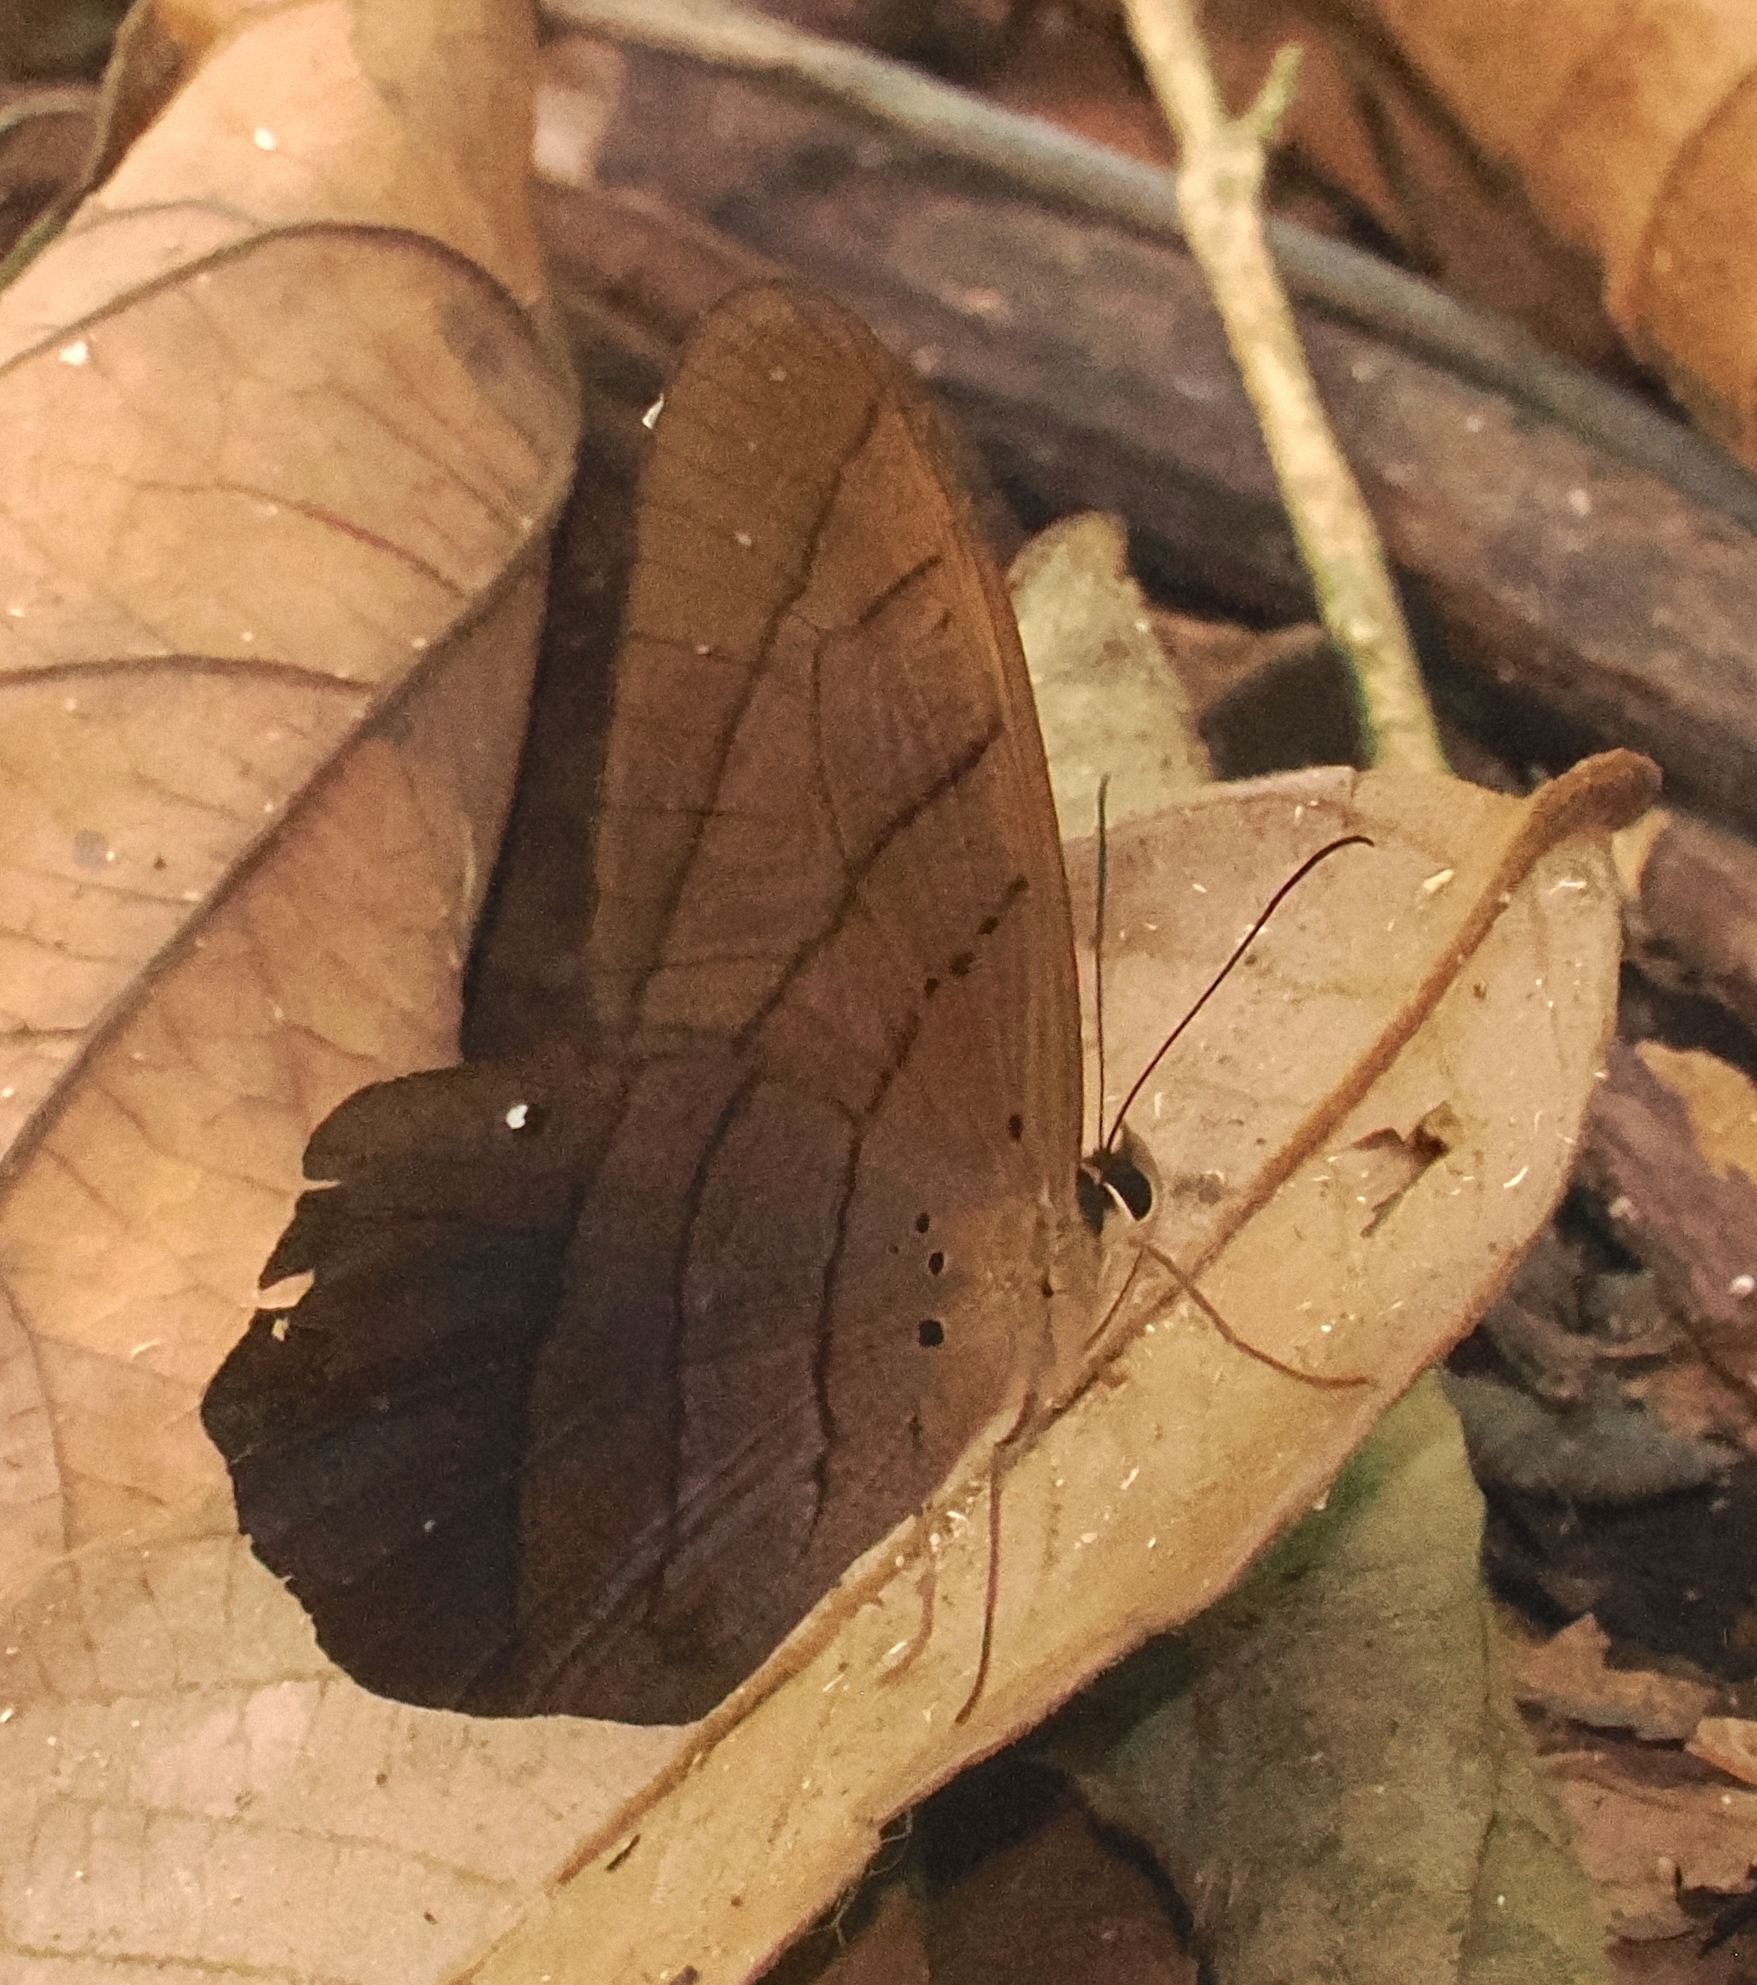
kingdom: Animalia
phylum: Arthropoda
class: Insecta
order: Lepidoptera
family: Nymphalidae
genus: Pierella
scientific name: Pierella luna
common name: Moon satyr
